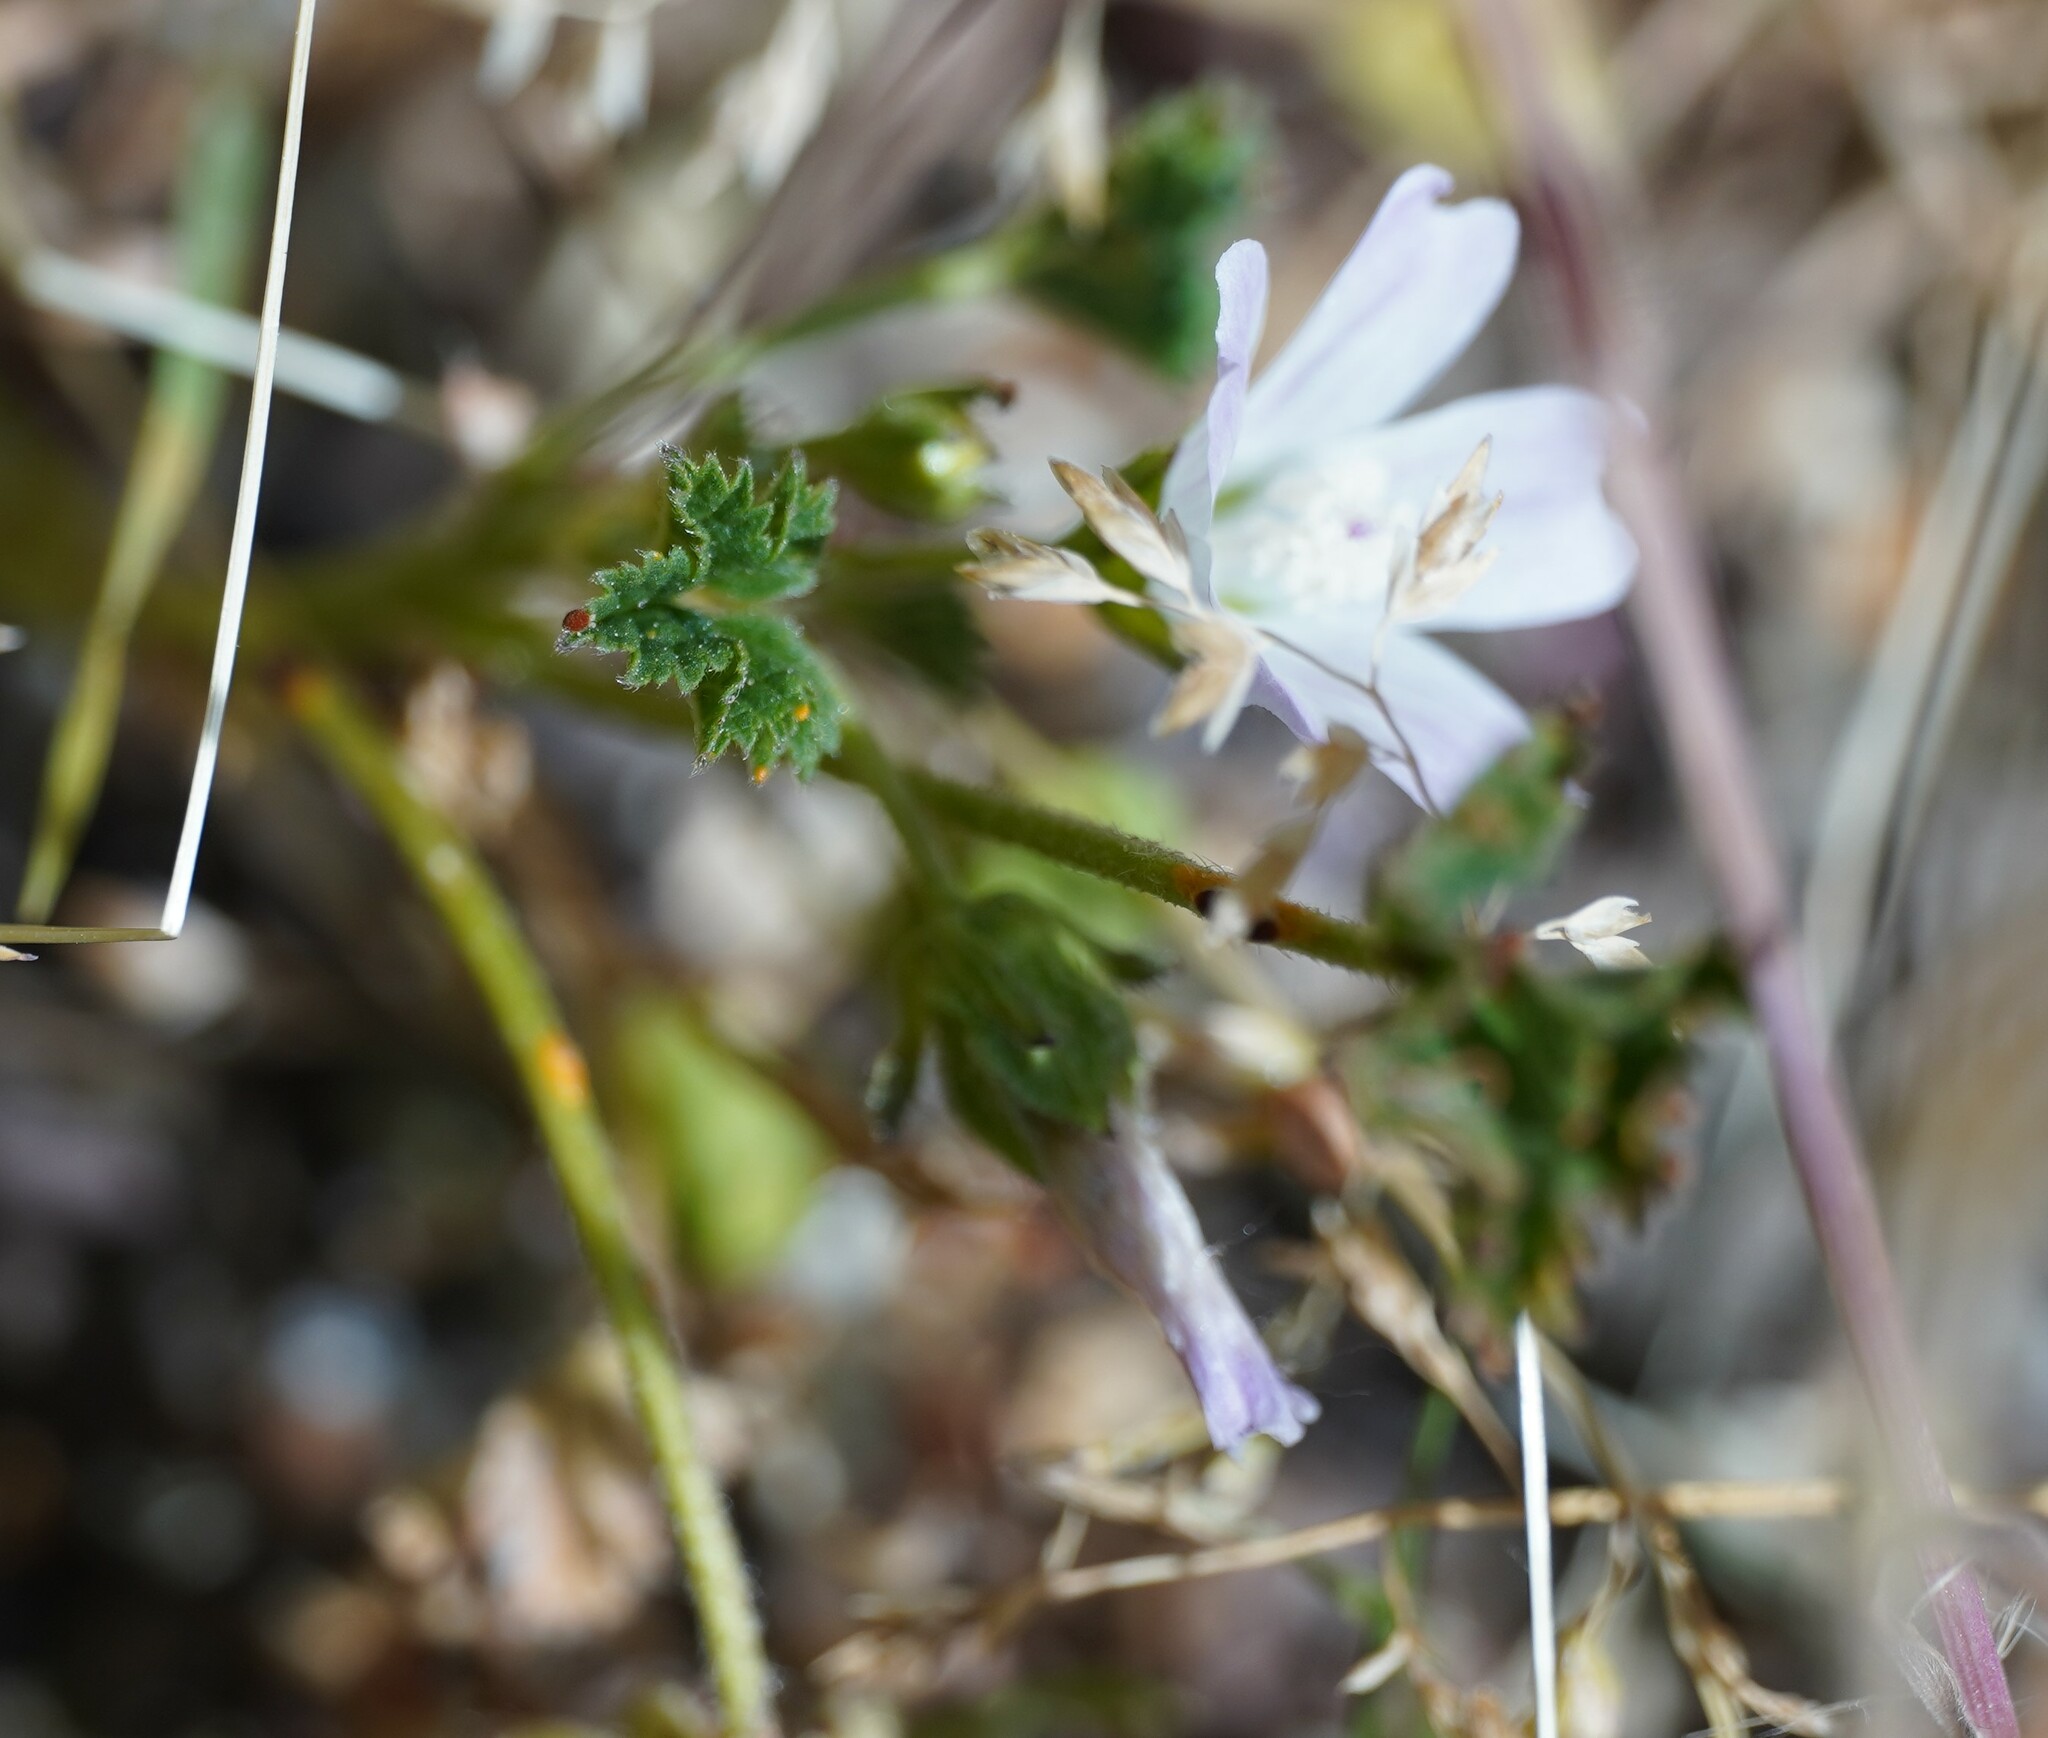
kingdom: Plantae
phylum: Tracheophyta
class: Magnoliopsida
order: Malvales
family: Malvaceae
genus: Malva
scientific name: Malva neglecta
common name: Common mallow
